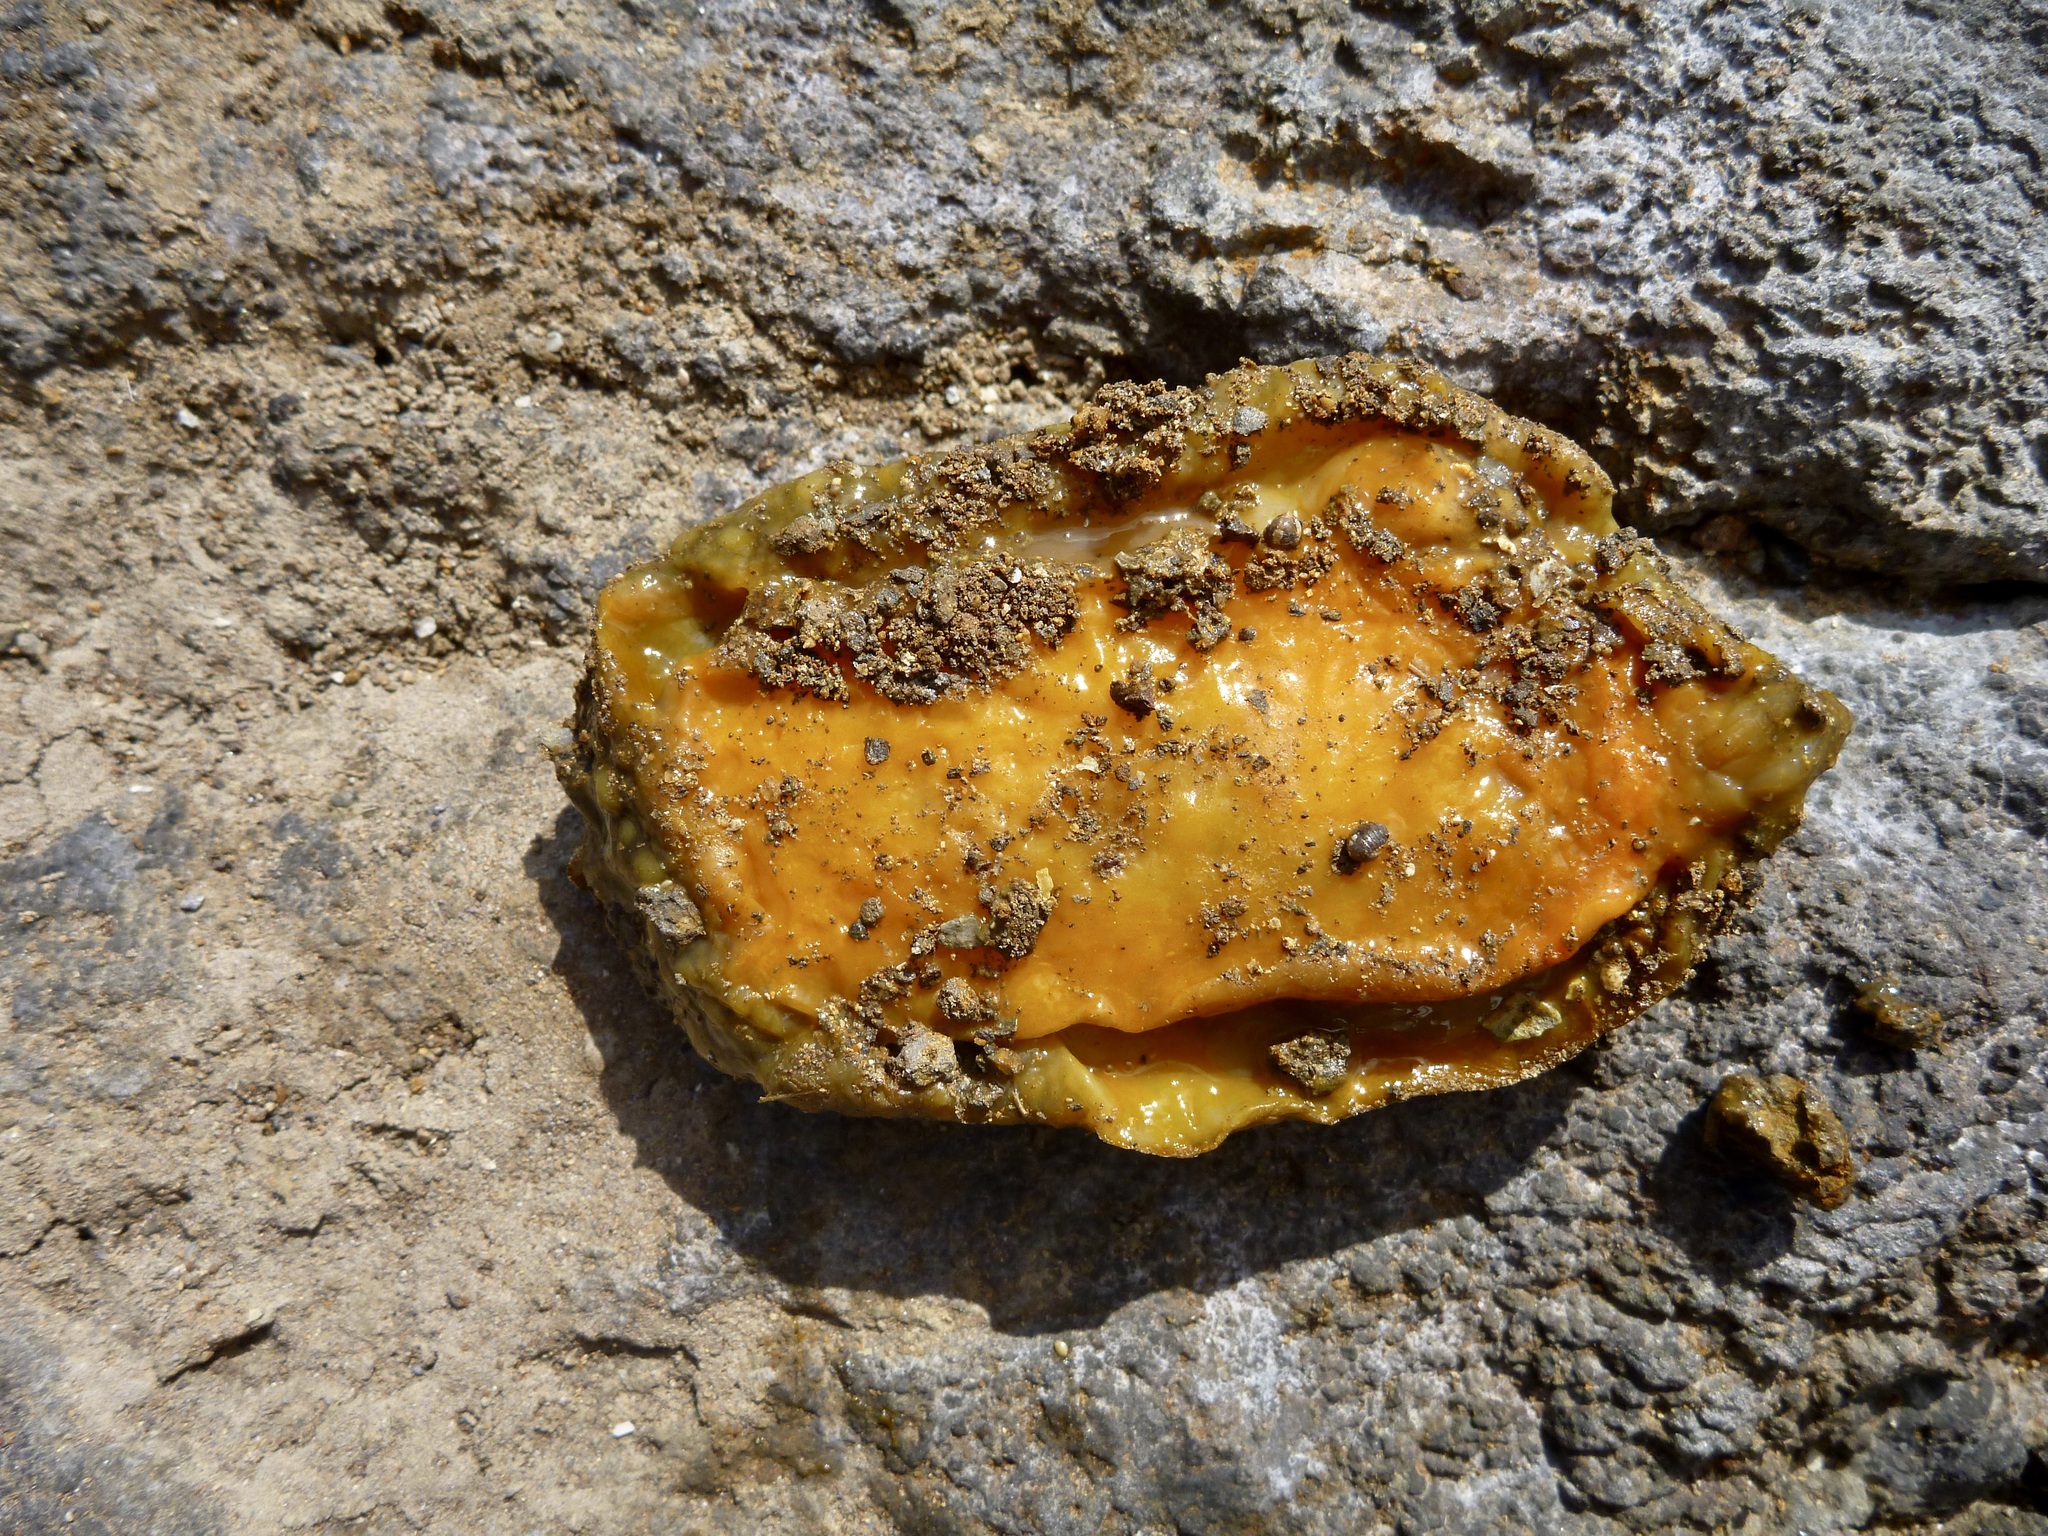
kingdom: Animalia
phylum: Mollusca
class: Gastropoda
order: Nudibranchia
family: Dorididae
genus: Doris
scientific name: Doris wellingtonensis
